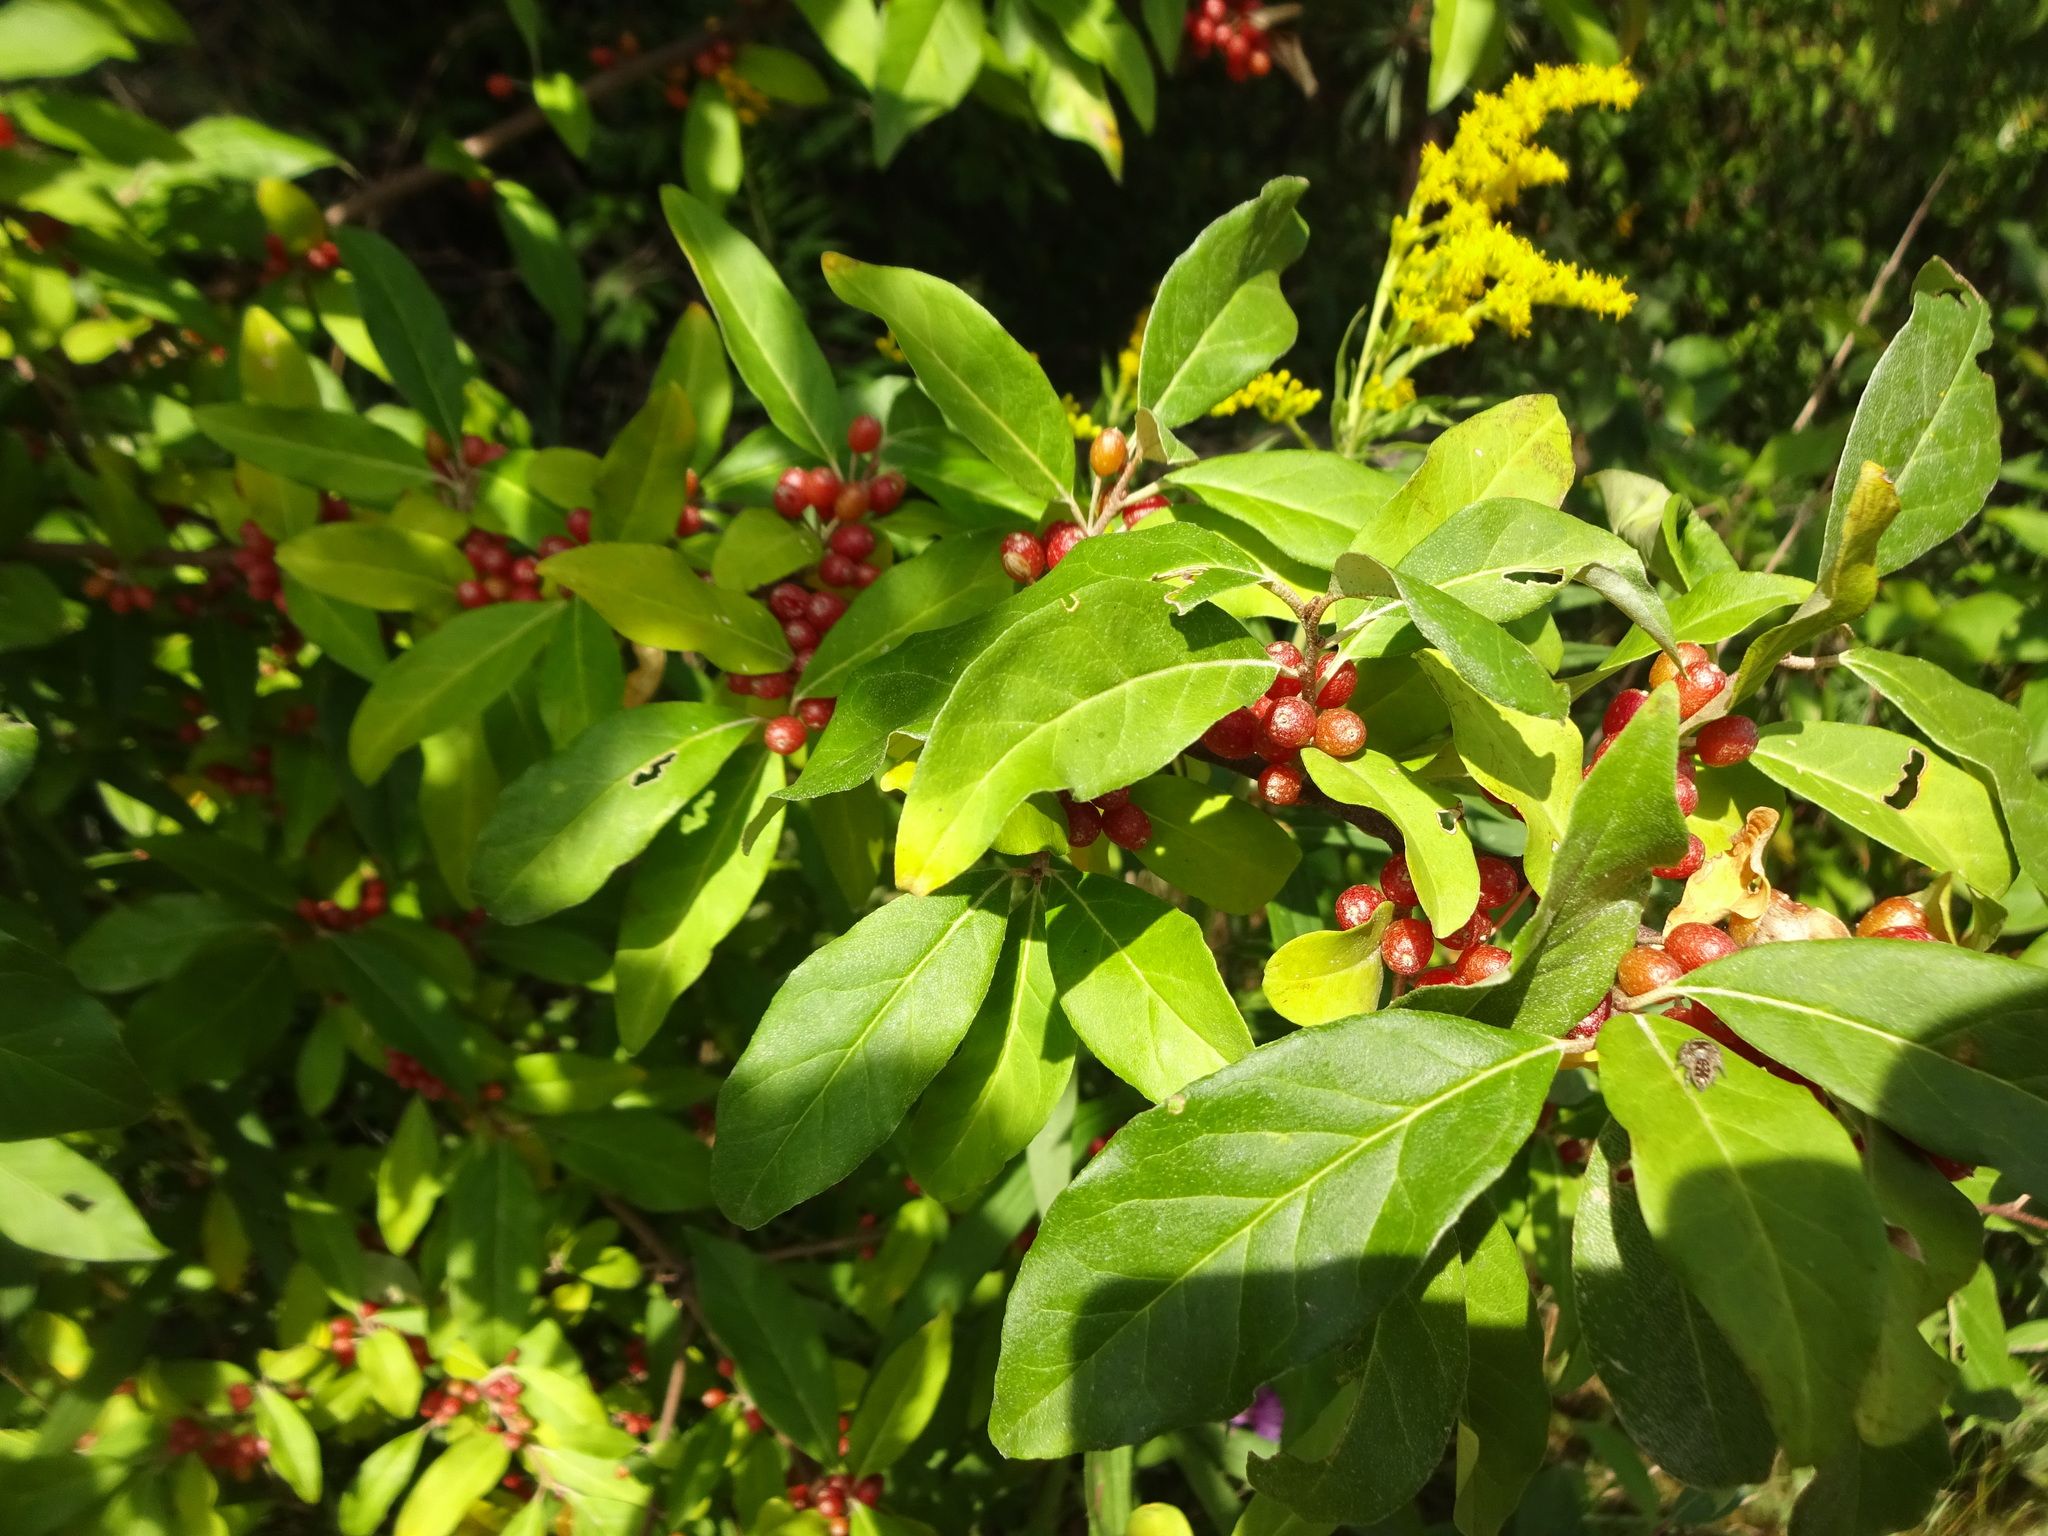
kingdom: Plantae
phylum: Tracheophyta
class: Magnoliopsida
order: Rosales
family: Elaeagnaceae
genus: Elaeagnus
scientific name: Elaeagnus umbellata
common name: Autumn olive
